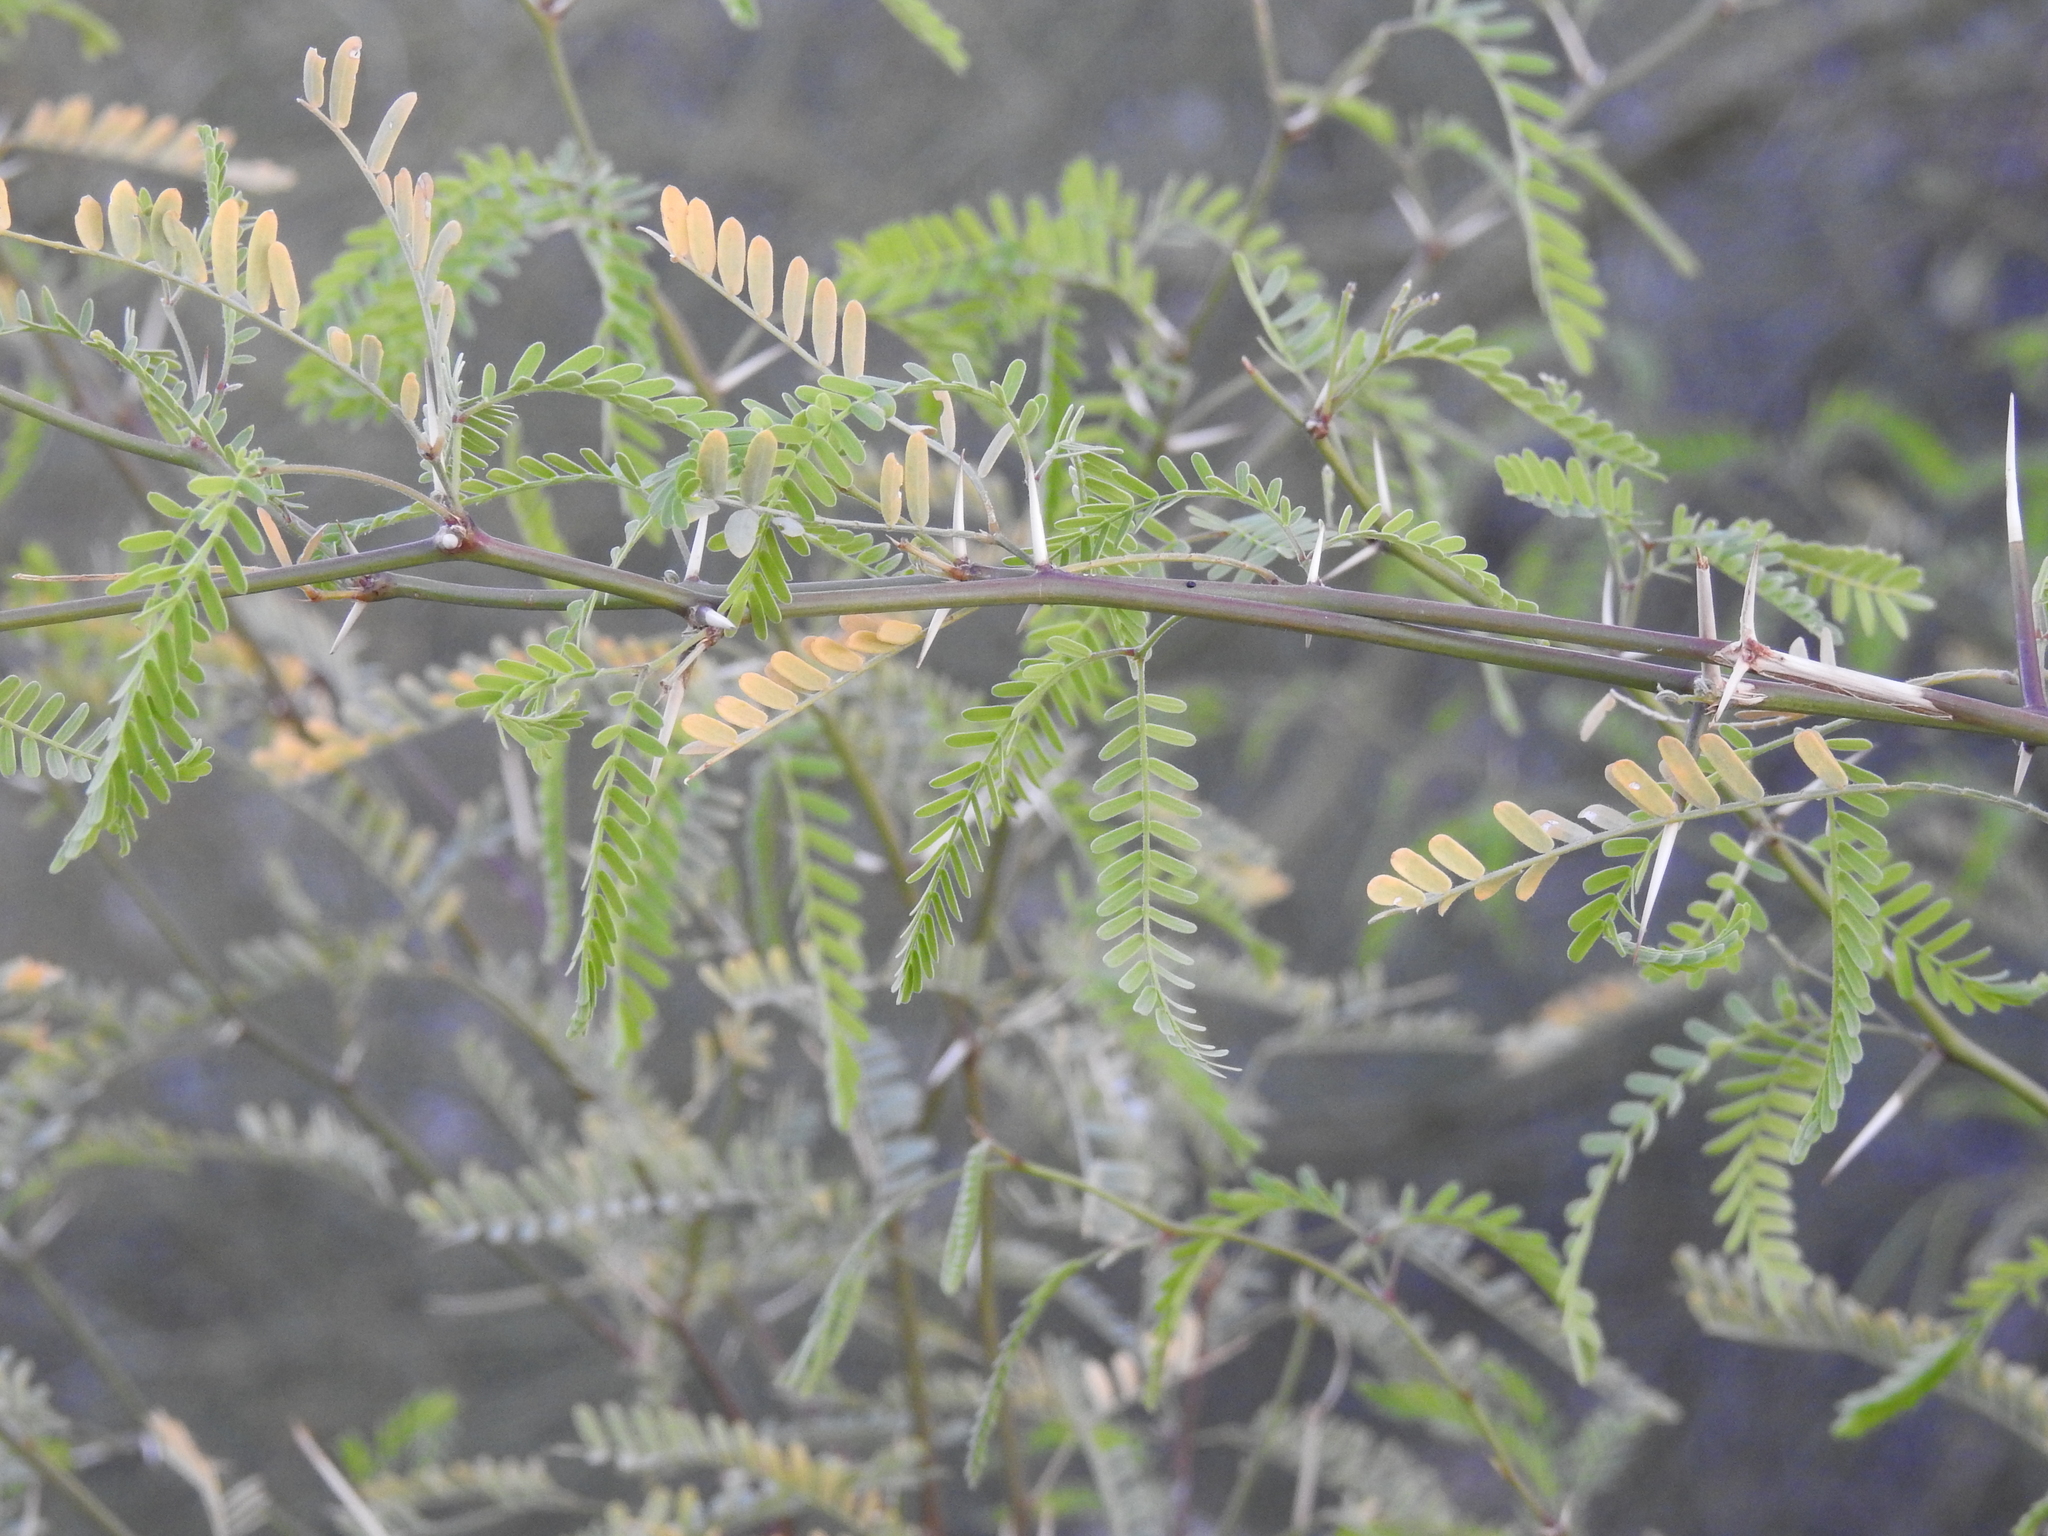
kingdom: Plantae
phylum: Tracheophyta
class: Magnoliopsida
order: Fabales
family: Fabaceae
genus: Prosopis
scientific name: Prosopis velutina
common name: Velvet mesquite
